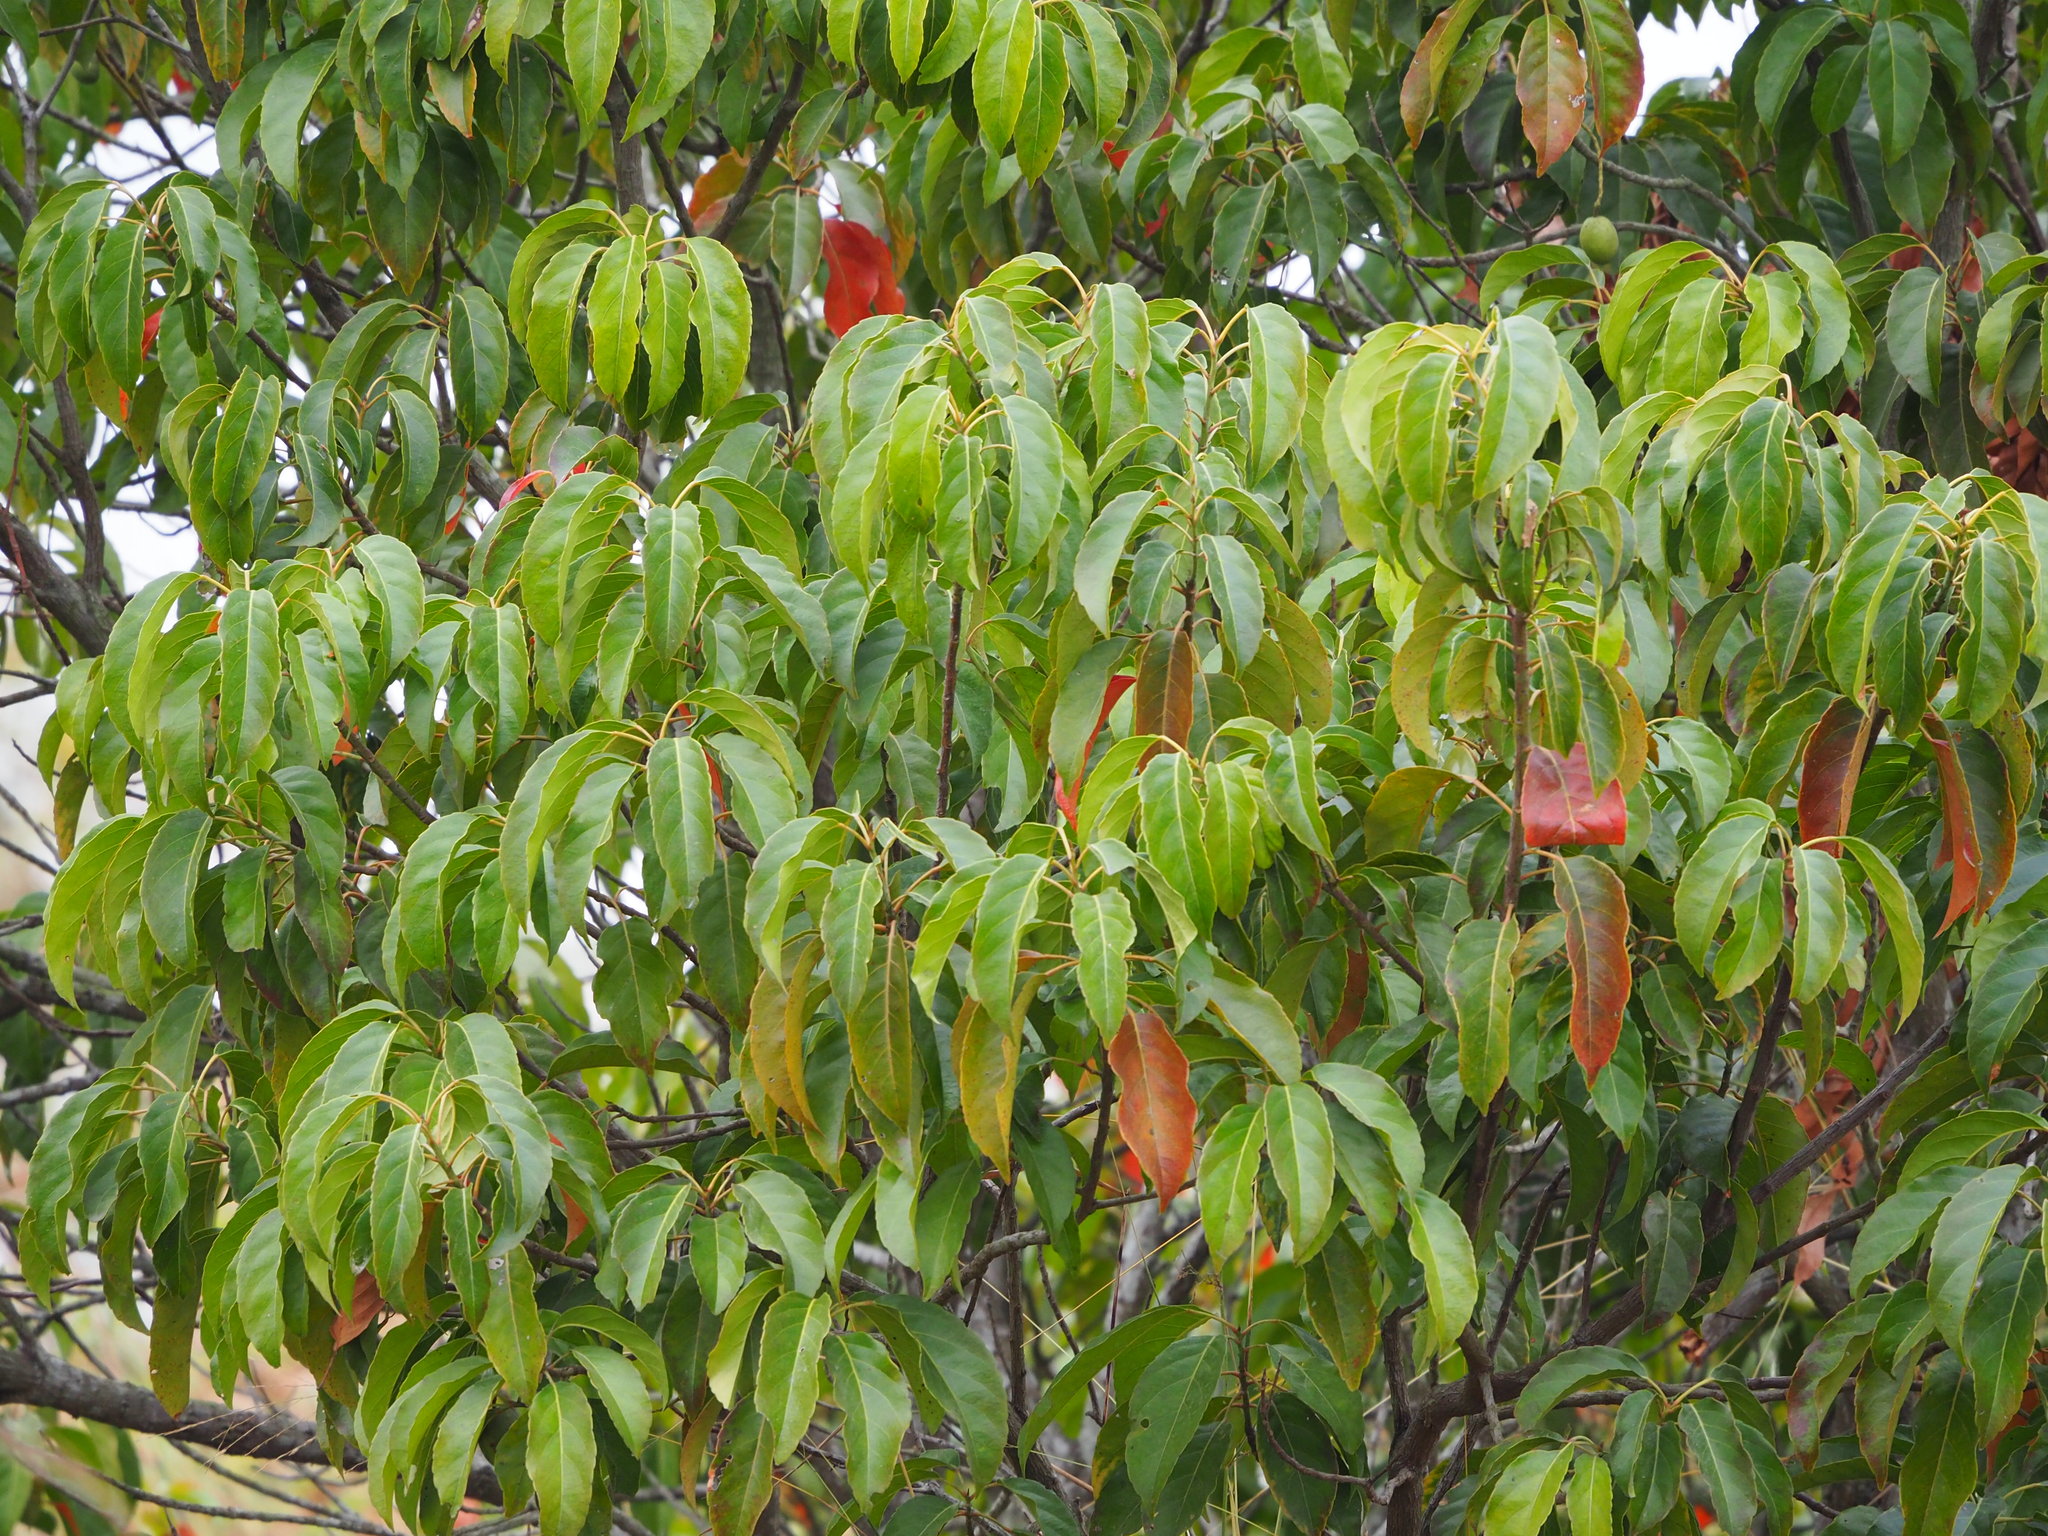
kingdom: Plantae
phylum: Tracheophyta
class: Magnoliopsida
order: Oxalidales
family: Elaeocarpaceae
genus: Elaeocarpus
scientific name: Elaeocarpus serratus
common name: Ceylon-olive
